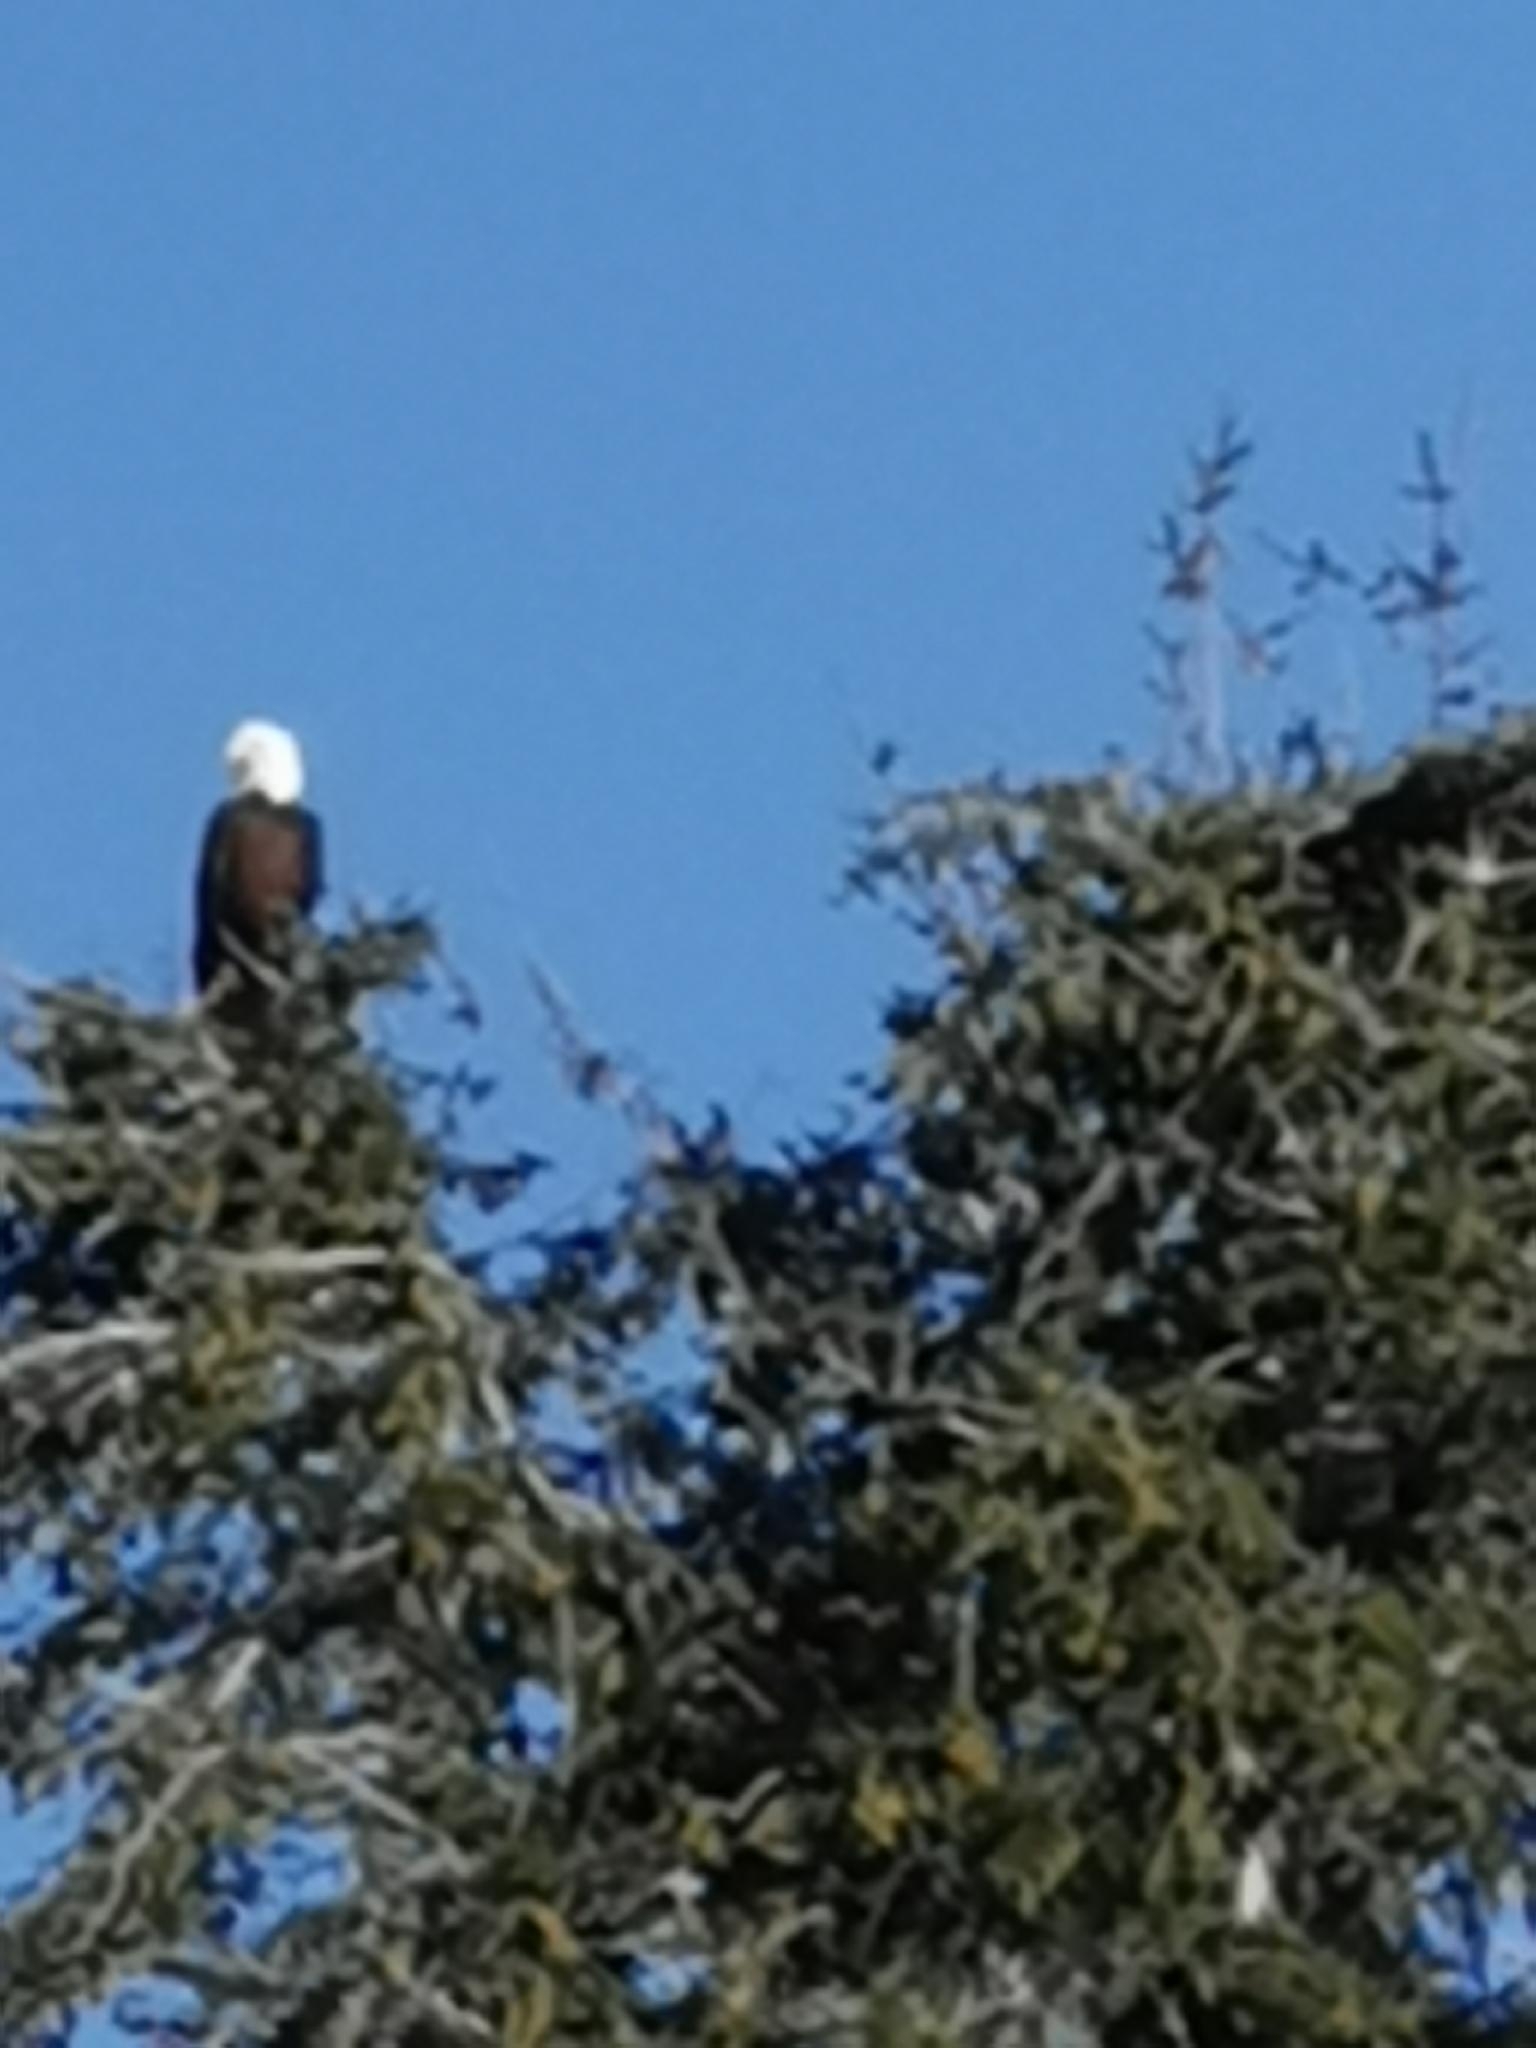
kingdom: Animalia
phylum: Chordata
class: Aves
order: Accipitriformes
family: Accipitridae
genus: Haliaeetus
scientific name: Haliaeetus leucocephalus
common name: Bald eagle
